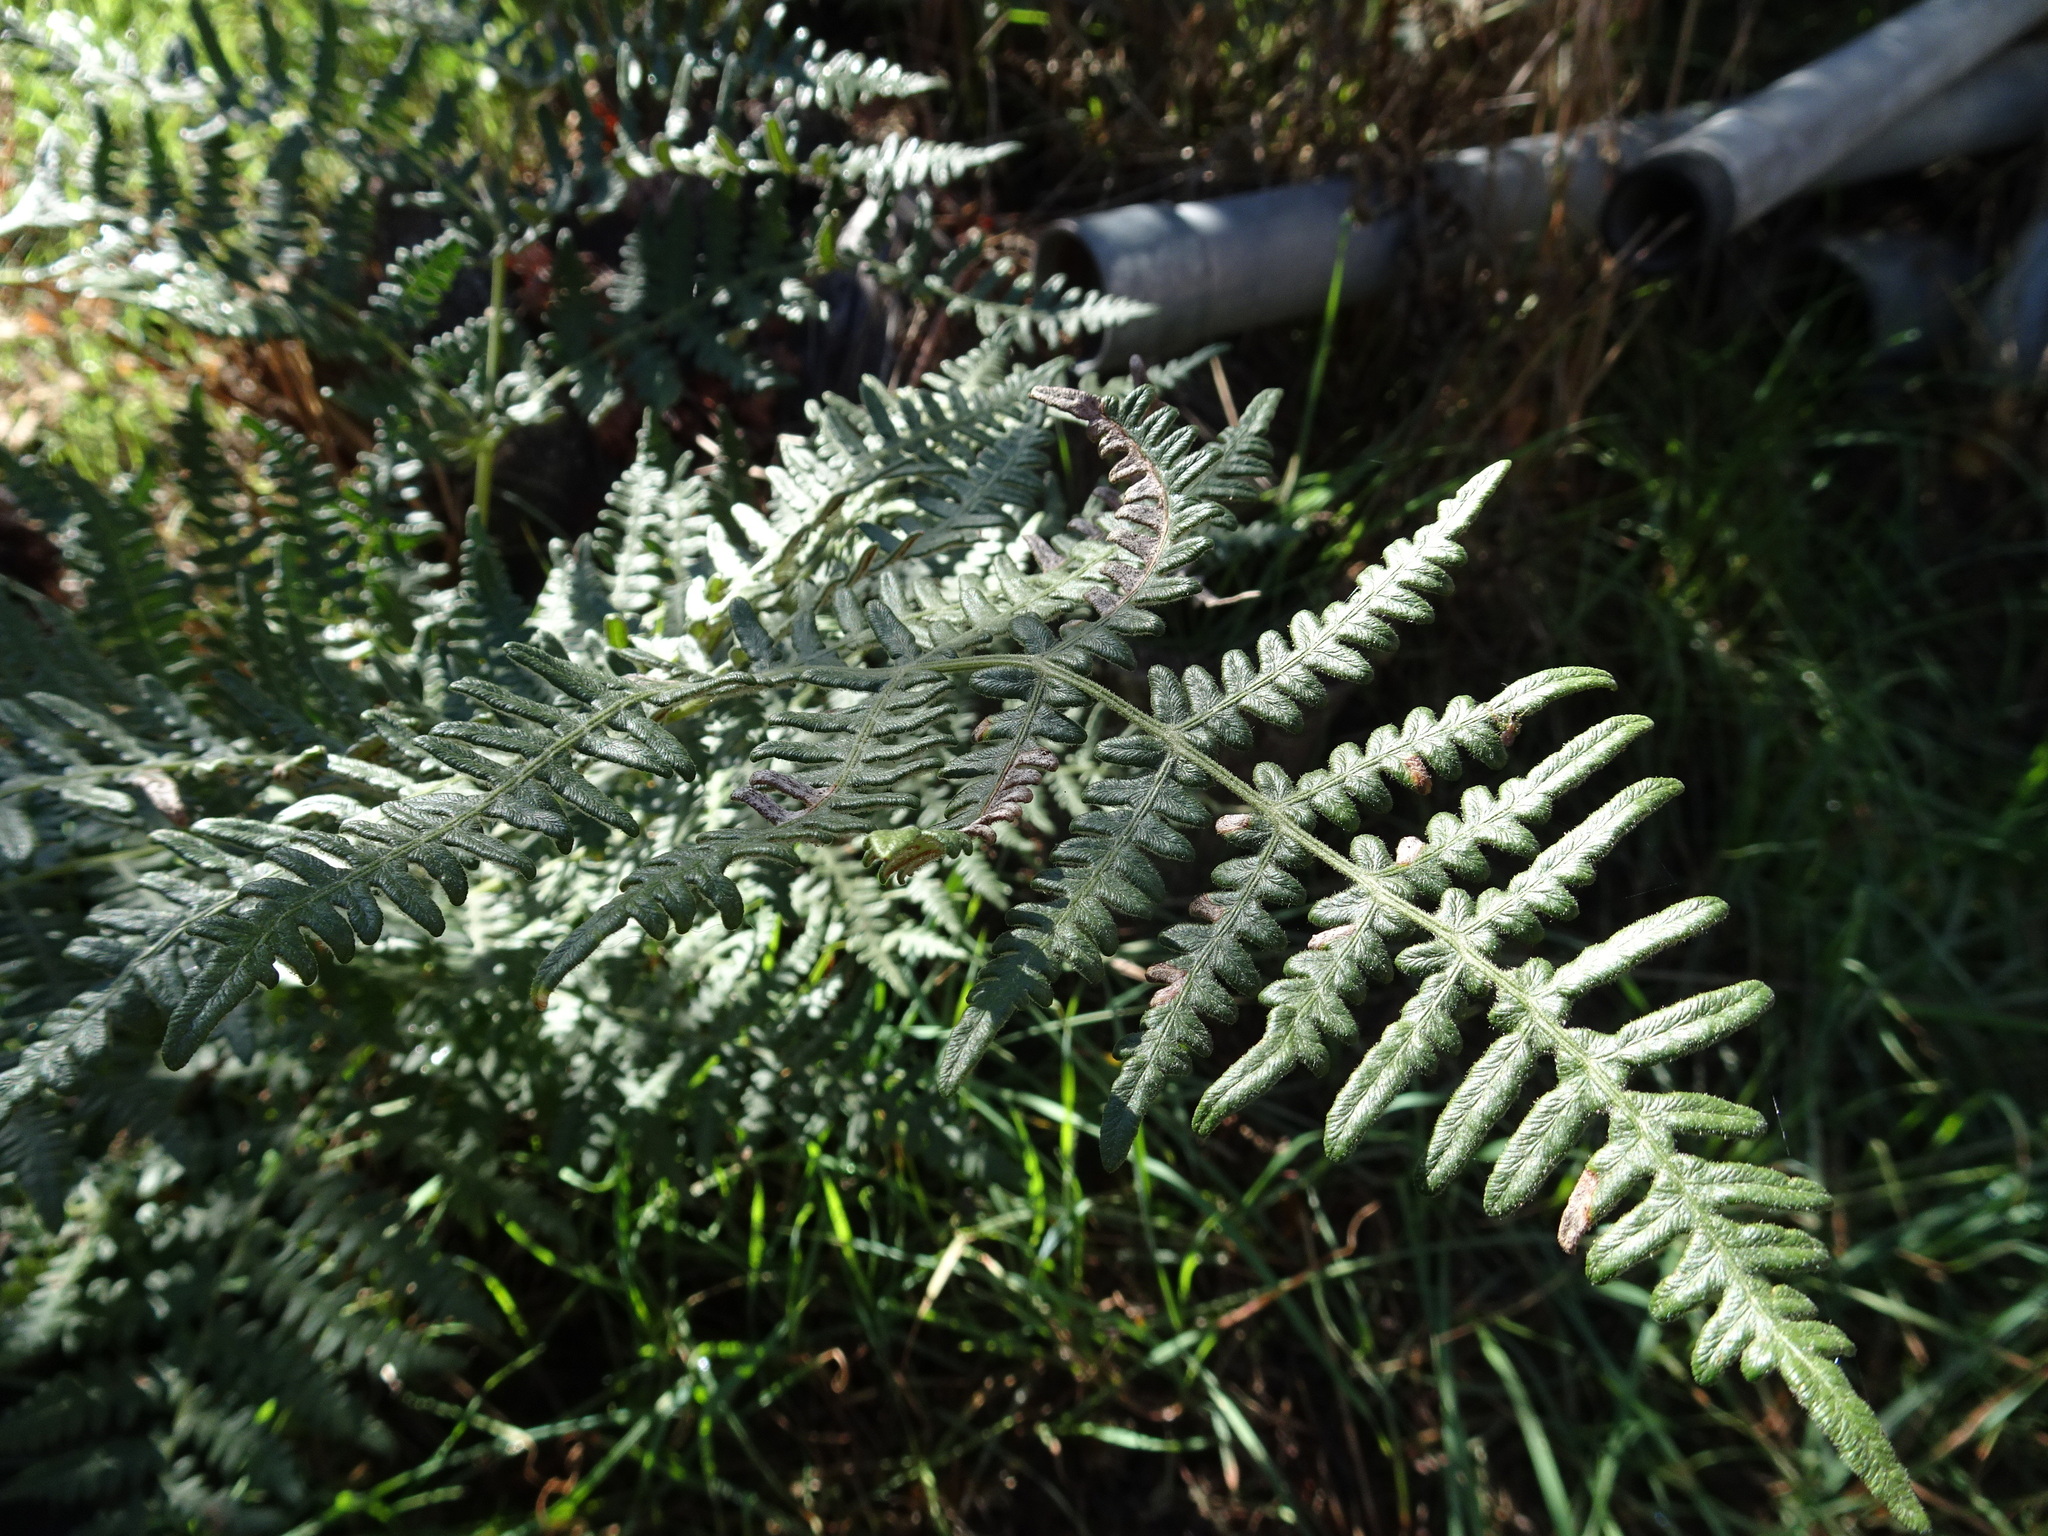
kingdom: Plantae
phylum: Tracheophyta
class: Polypodiopsida
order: Polypodiales
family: Dennstaedtiaceae
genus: Pteridium
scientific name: Pteridium aquilinum
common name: Bracken
